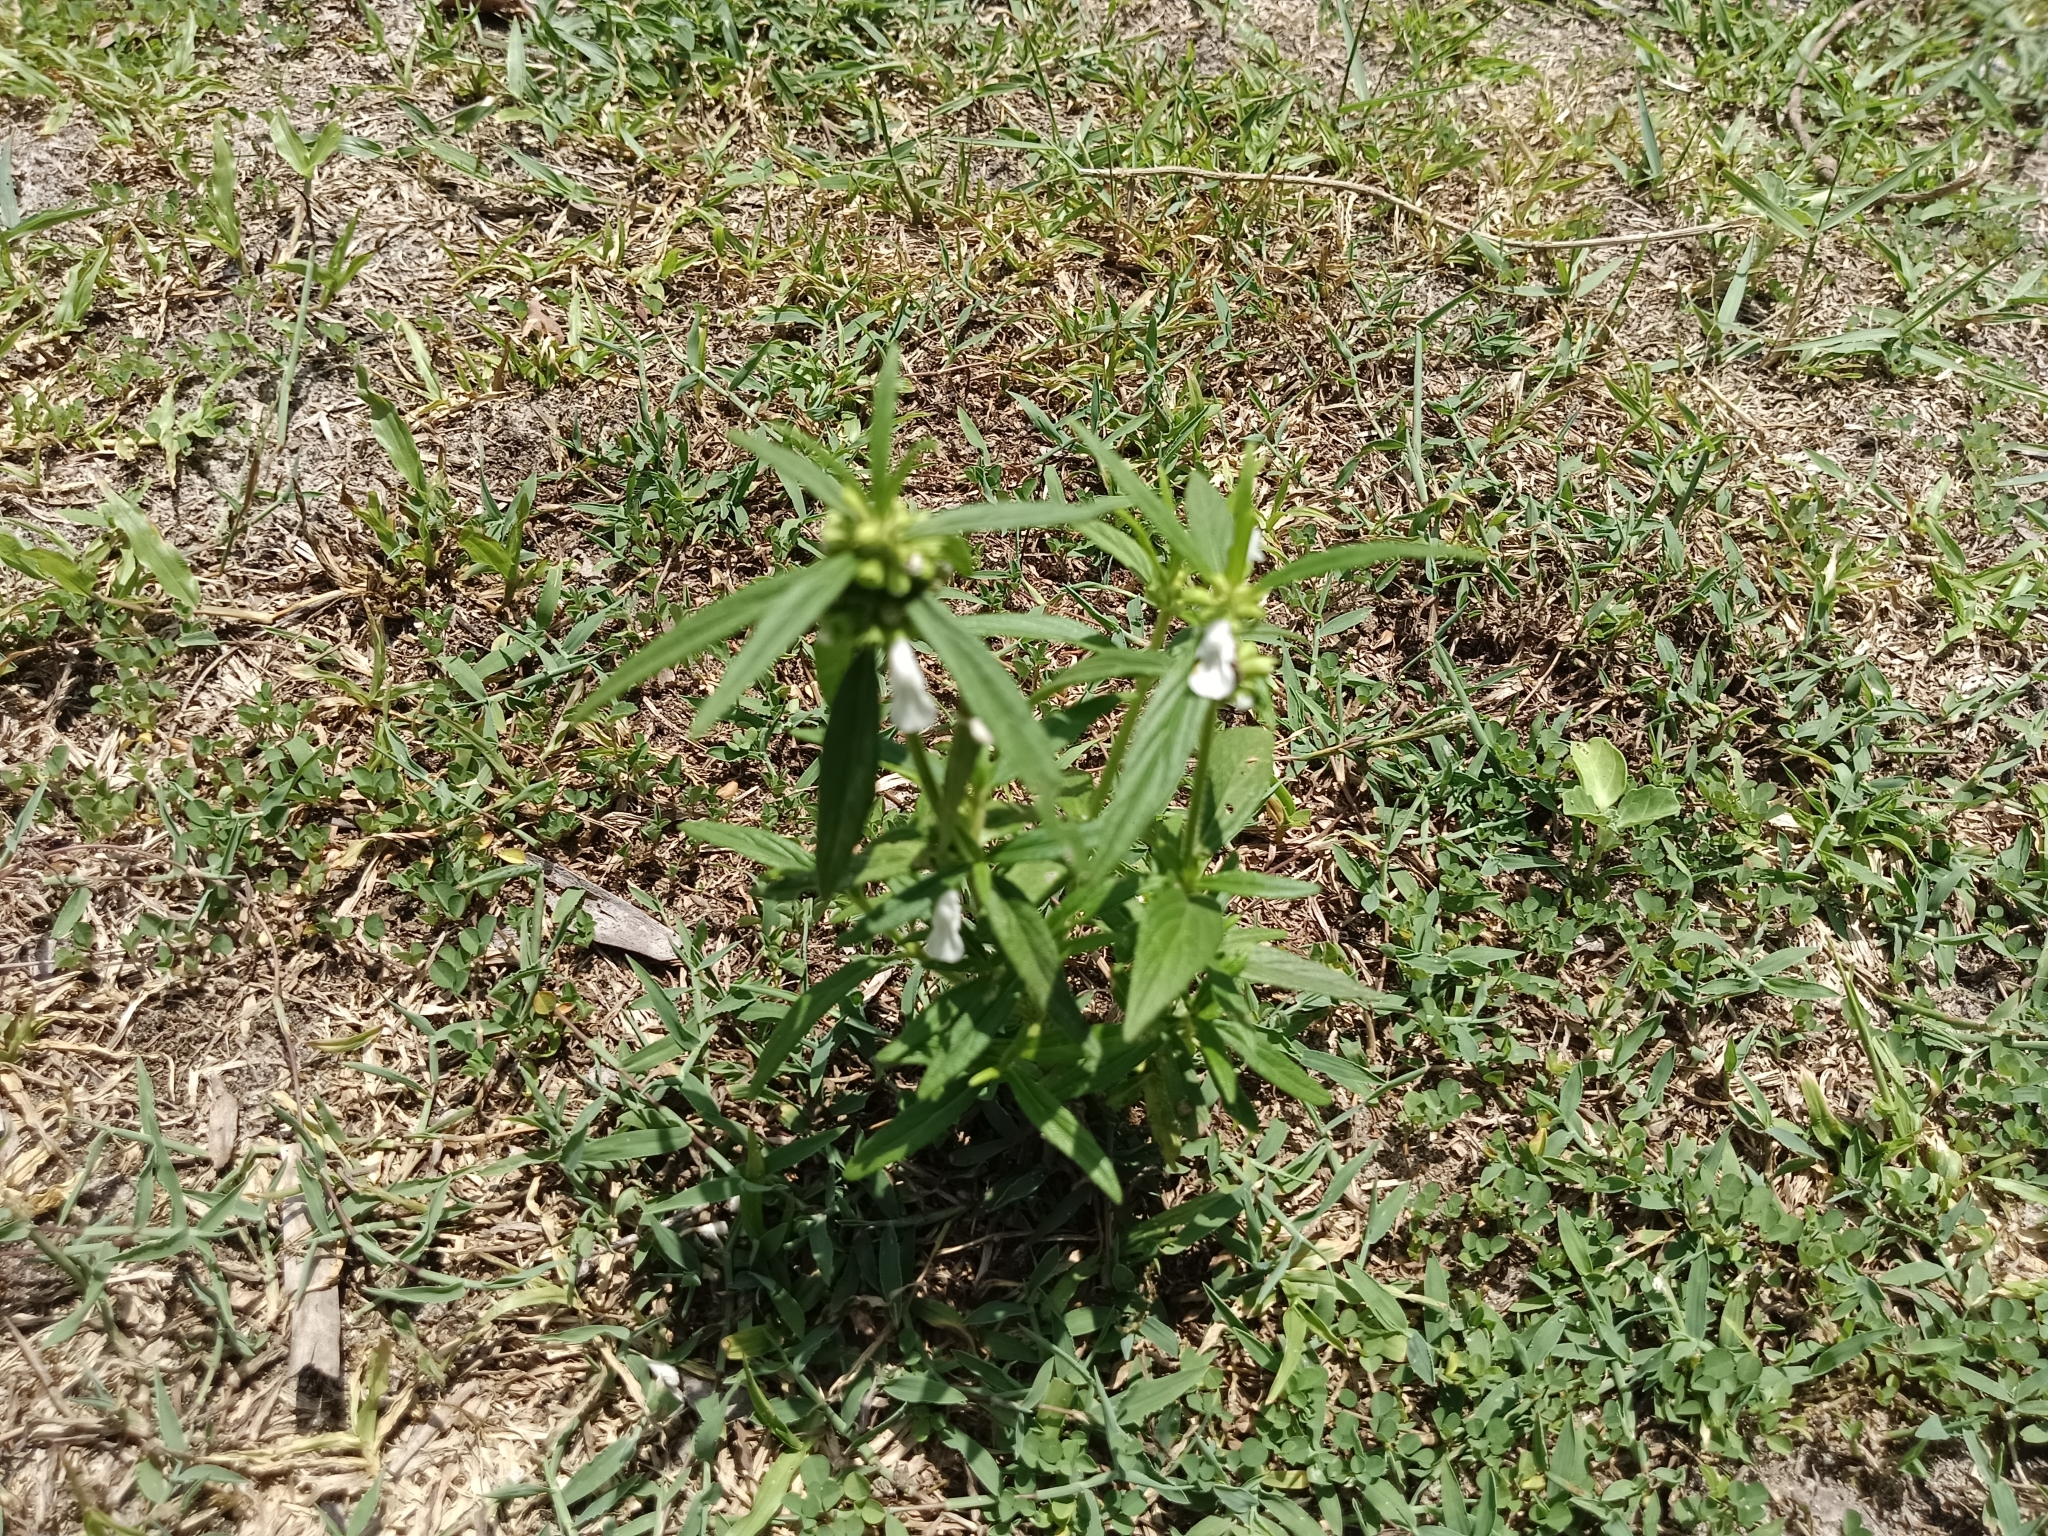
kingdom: Plantae
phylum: Tracheophyta
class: Magnoliopsida
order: Lamiales
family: Lamiaceae
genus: Leucas
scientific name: Leucas aspera
